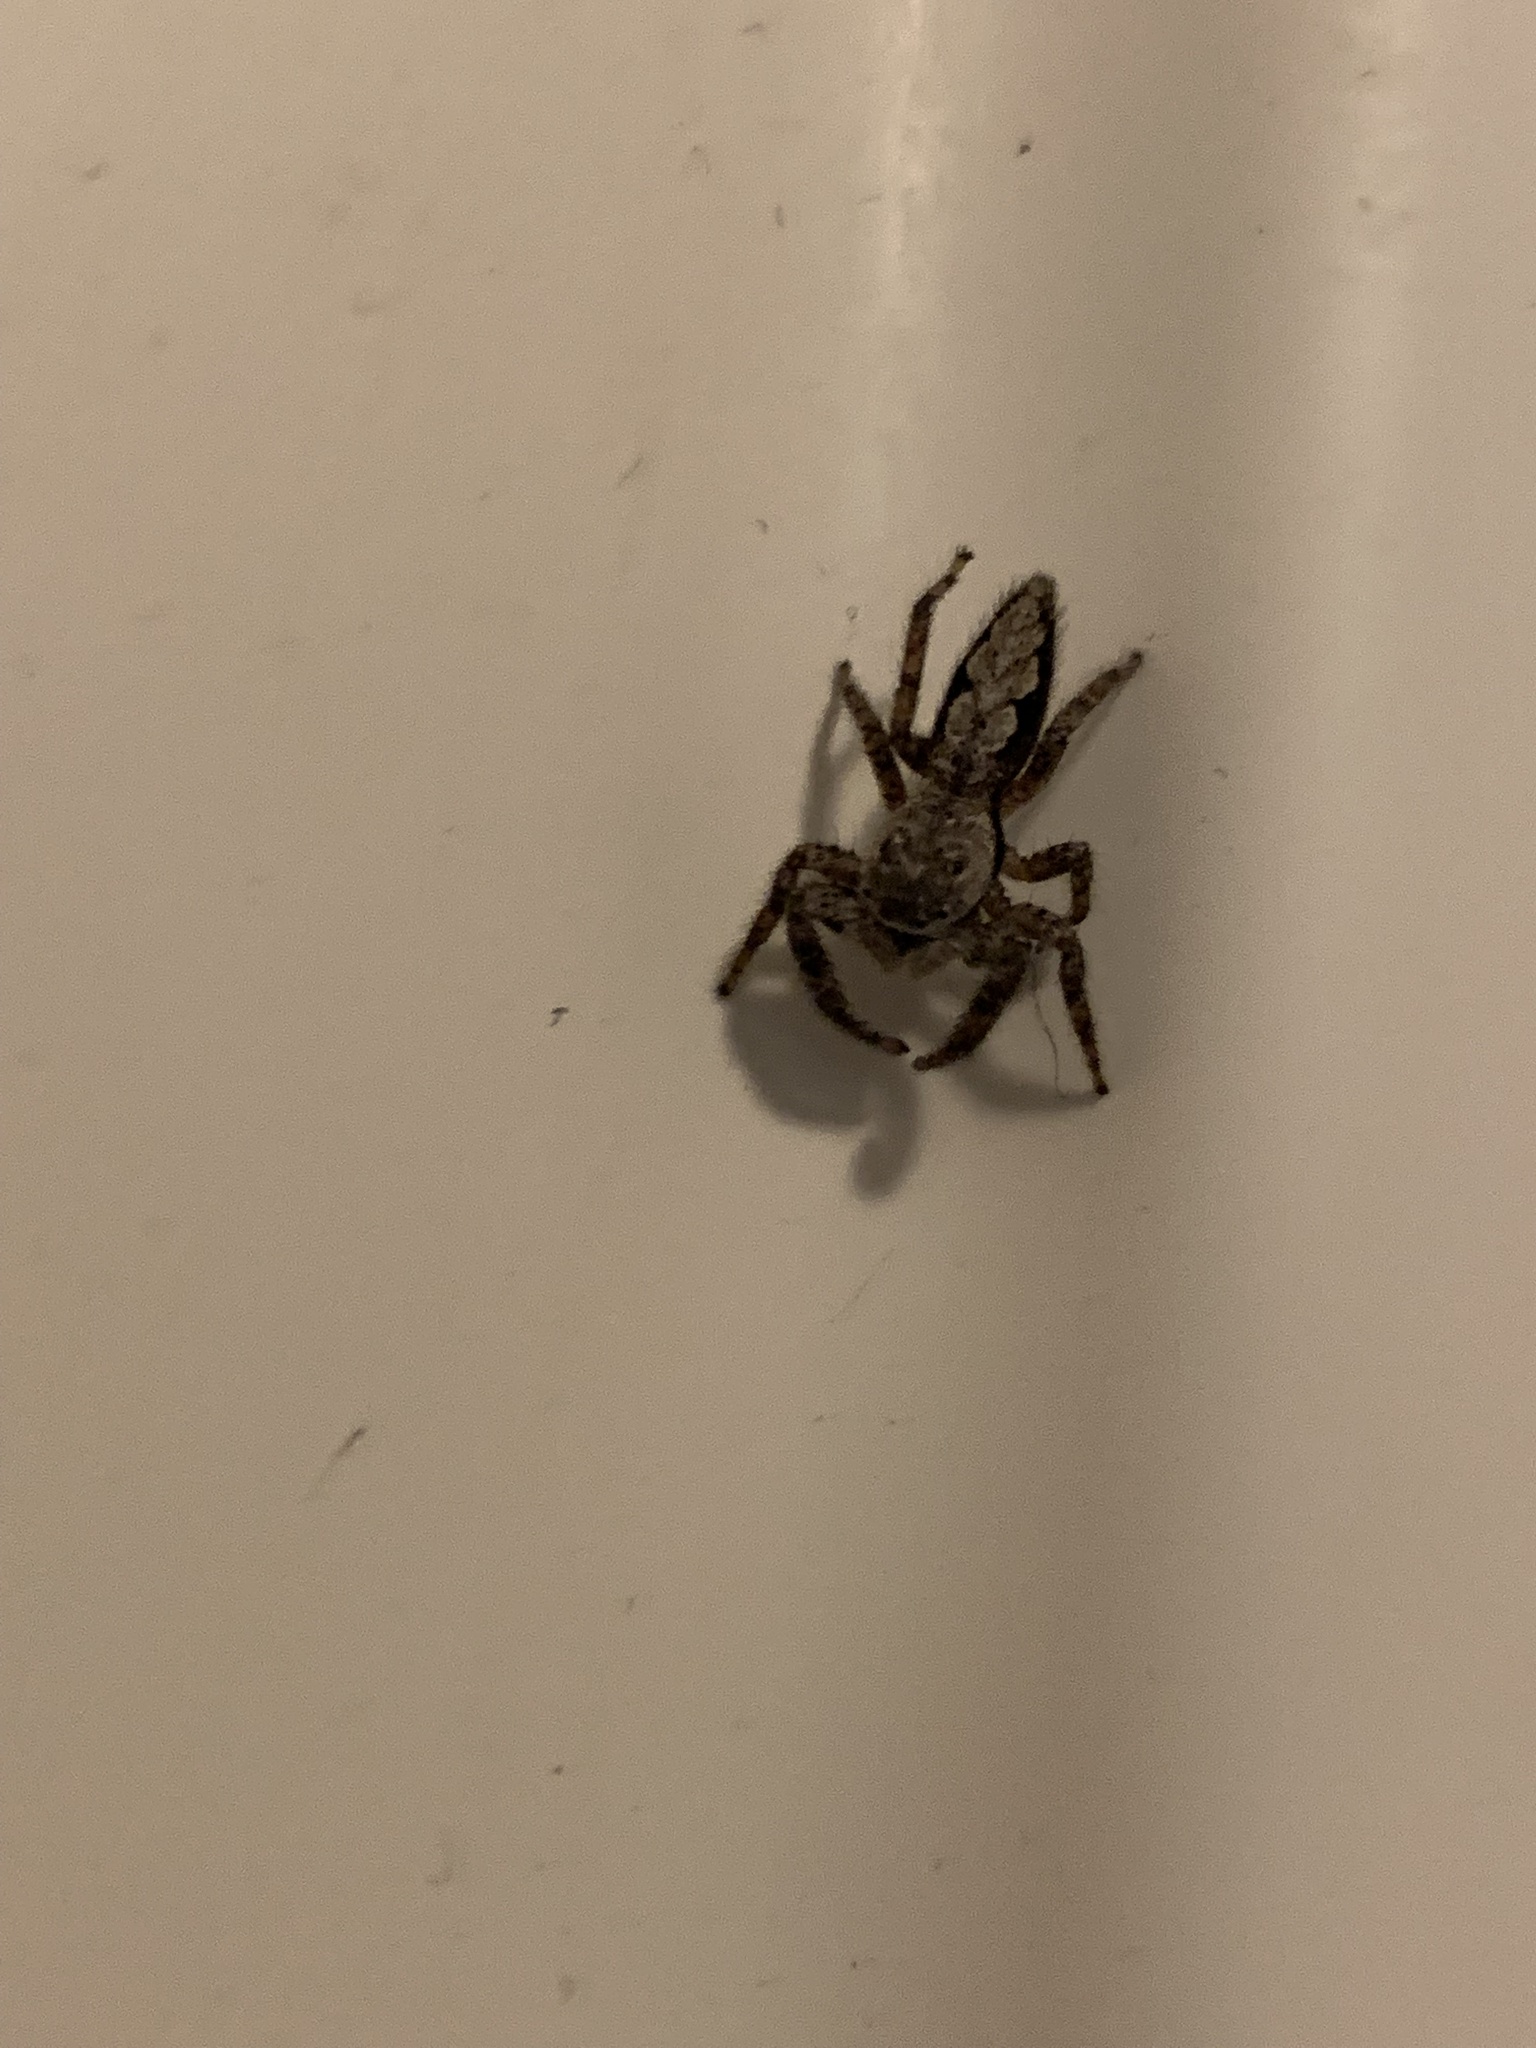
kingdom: Animalia
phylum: Arthropoda
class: Arachnida
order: Araneae
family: Salticidae
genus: Platycryptus
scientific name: Platycryptus undatus
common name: Tan jumping spider
